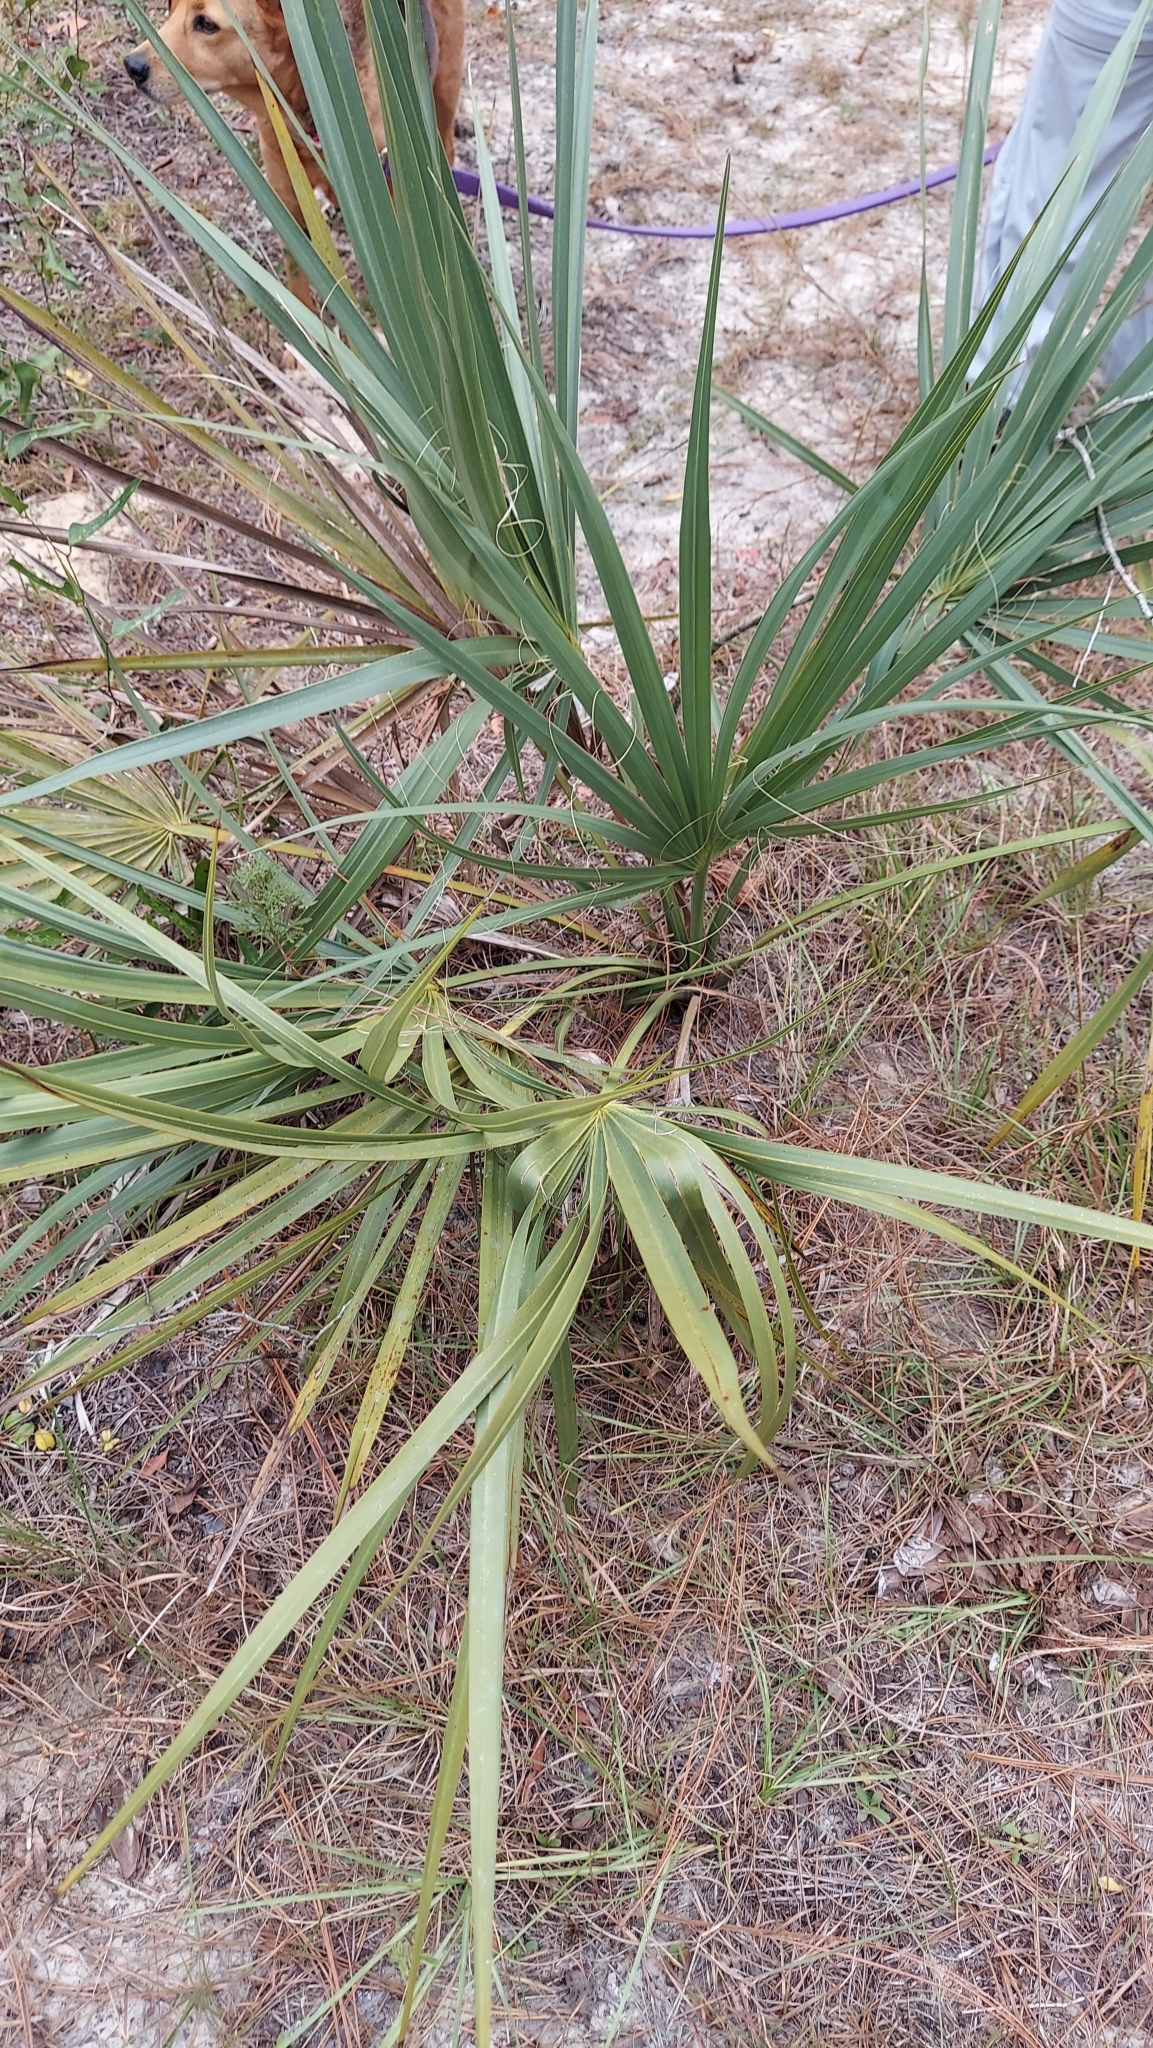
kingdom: Plantae
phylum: Tracheophyta
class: Liliopsida
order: Arecales
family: Arecaceae
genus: Sabal
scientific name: Sabal etonia
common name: Dwarf palmetto
